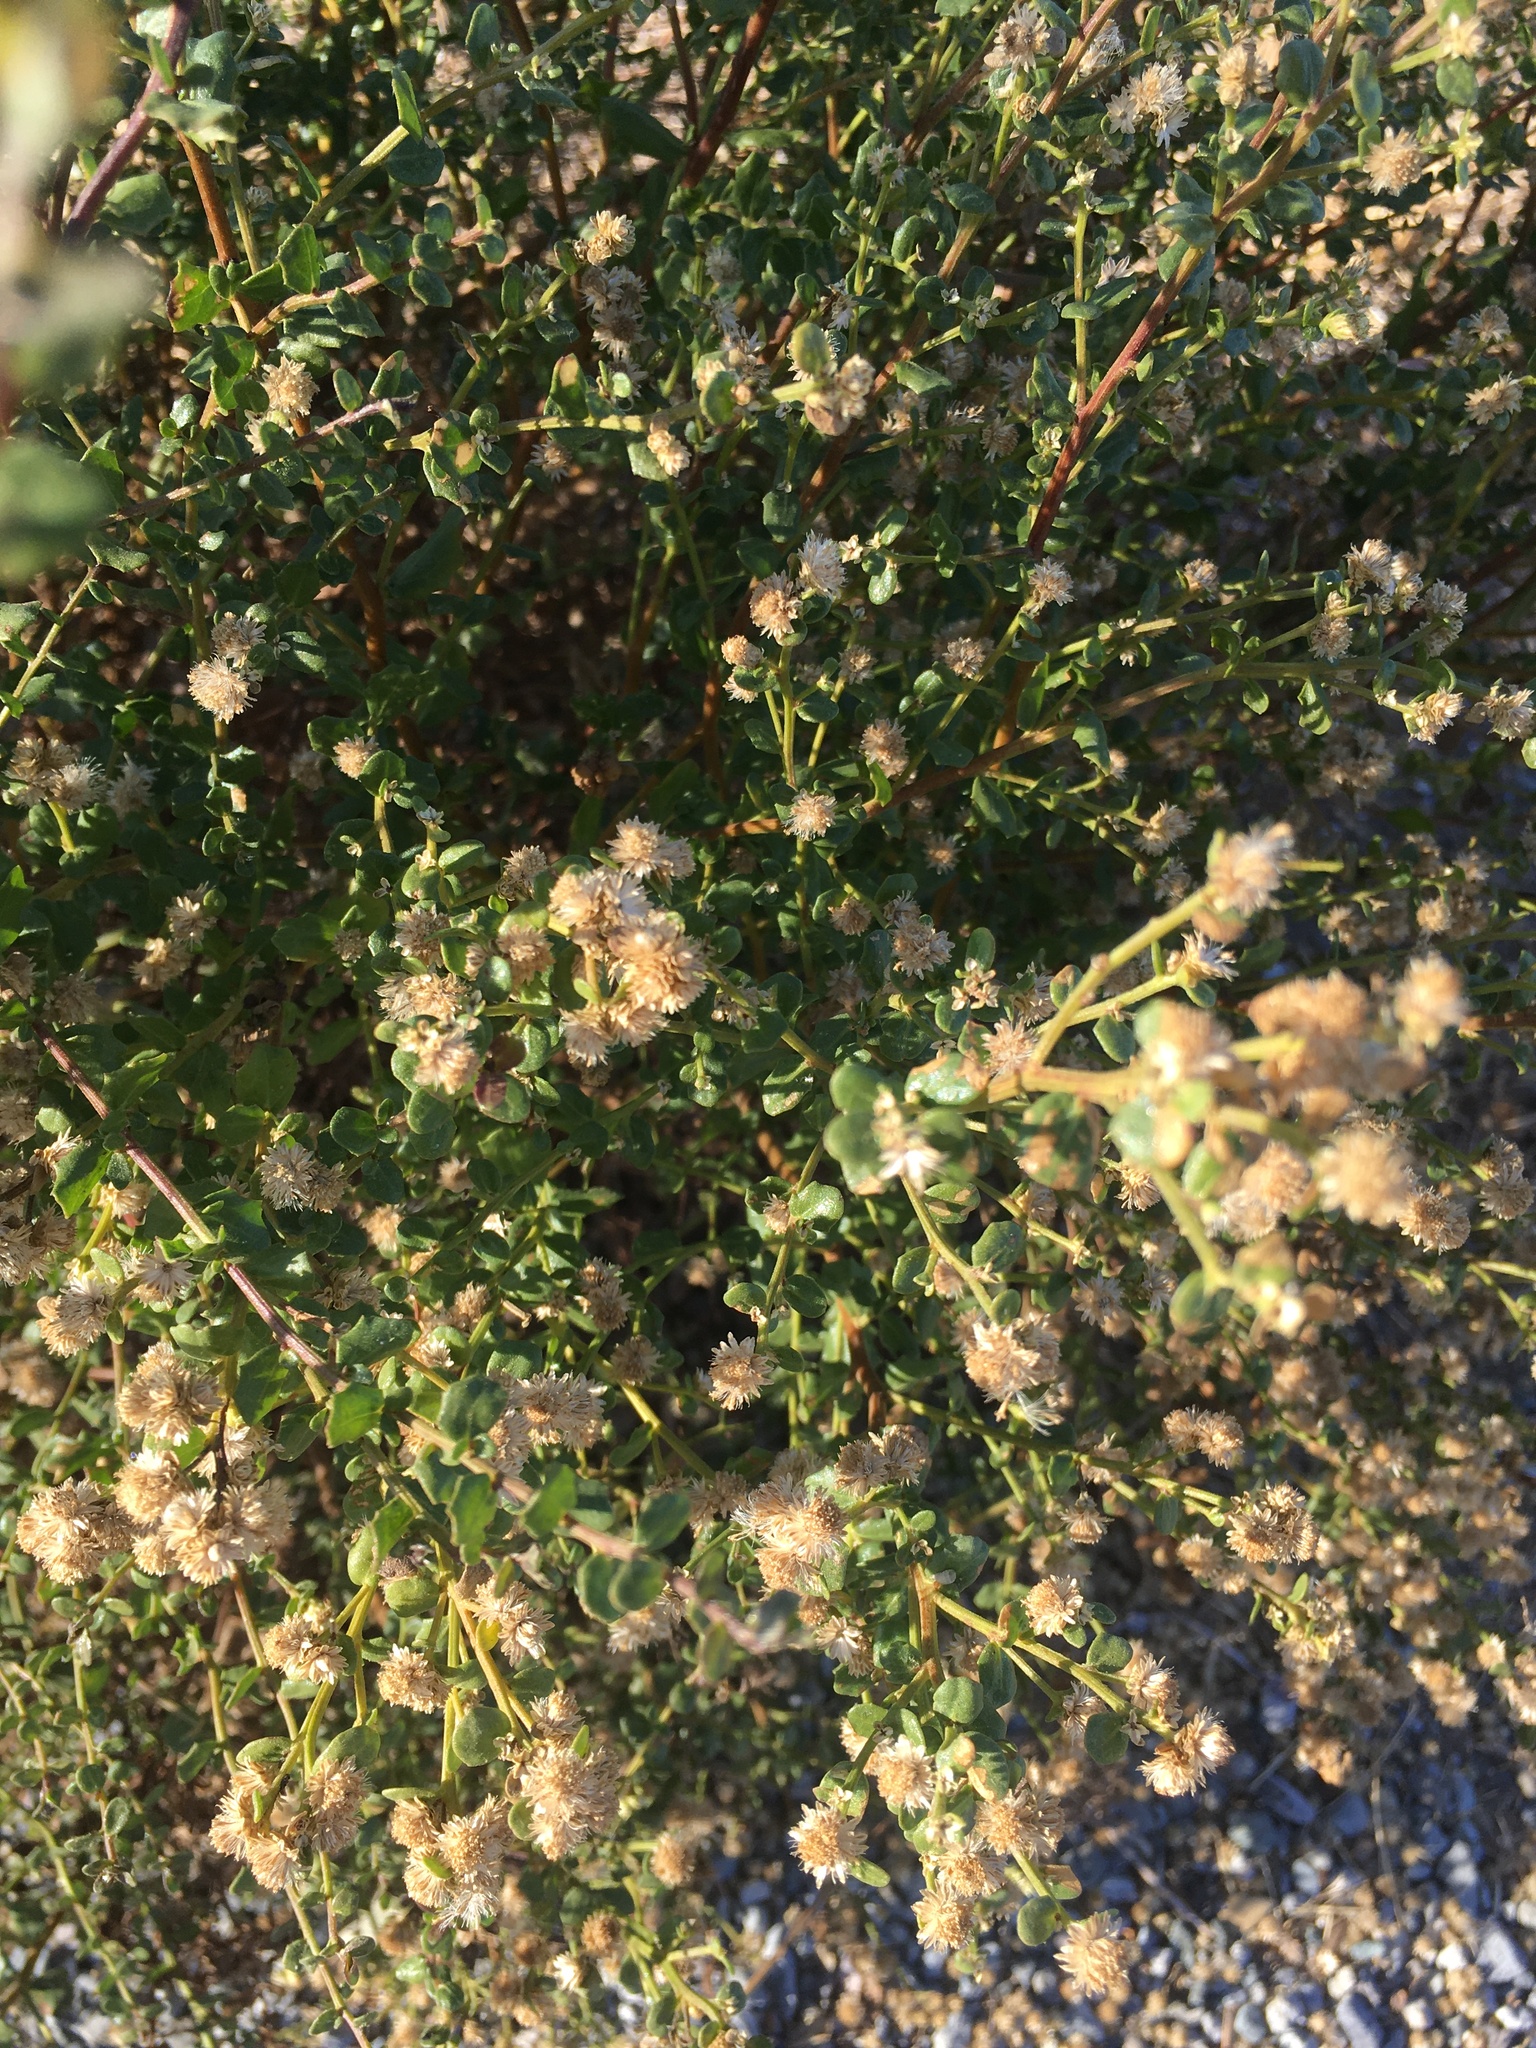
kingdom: Plantae
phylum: Tracheophyta
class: Magnoliopsida
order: Asterales
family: Asteraceae
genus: Baccharis
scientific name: Baccharis pilularis
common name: Coyotebrush
